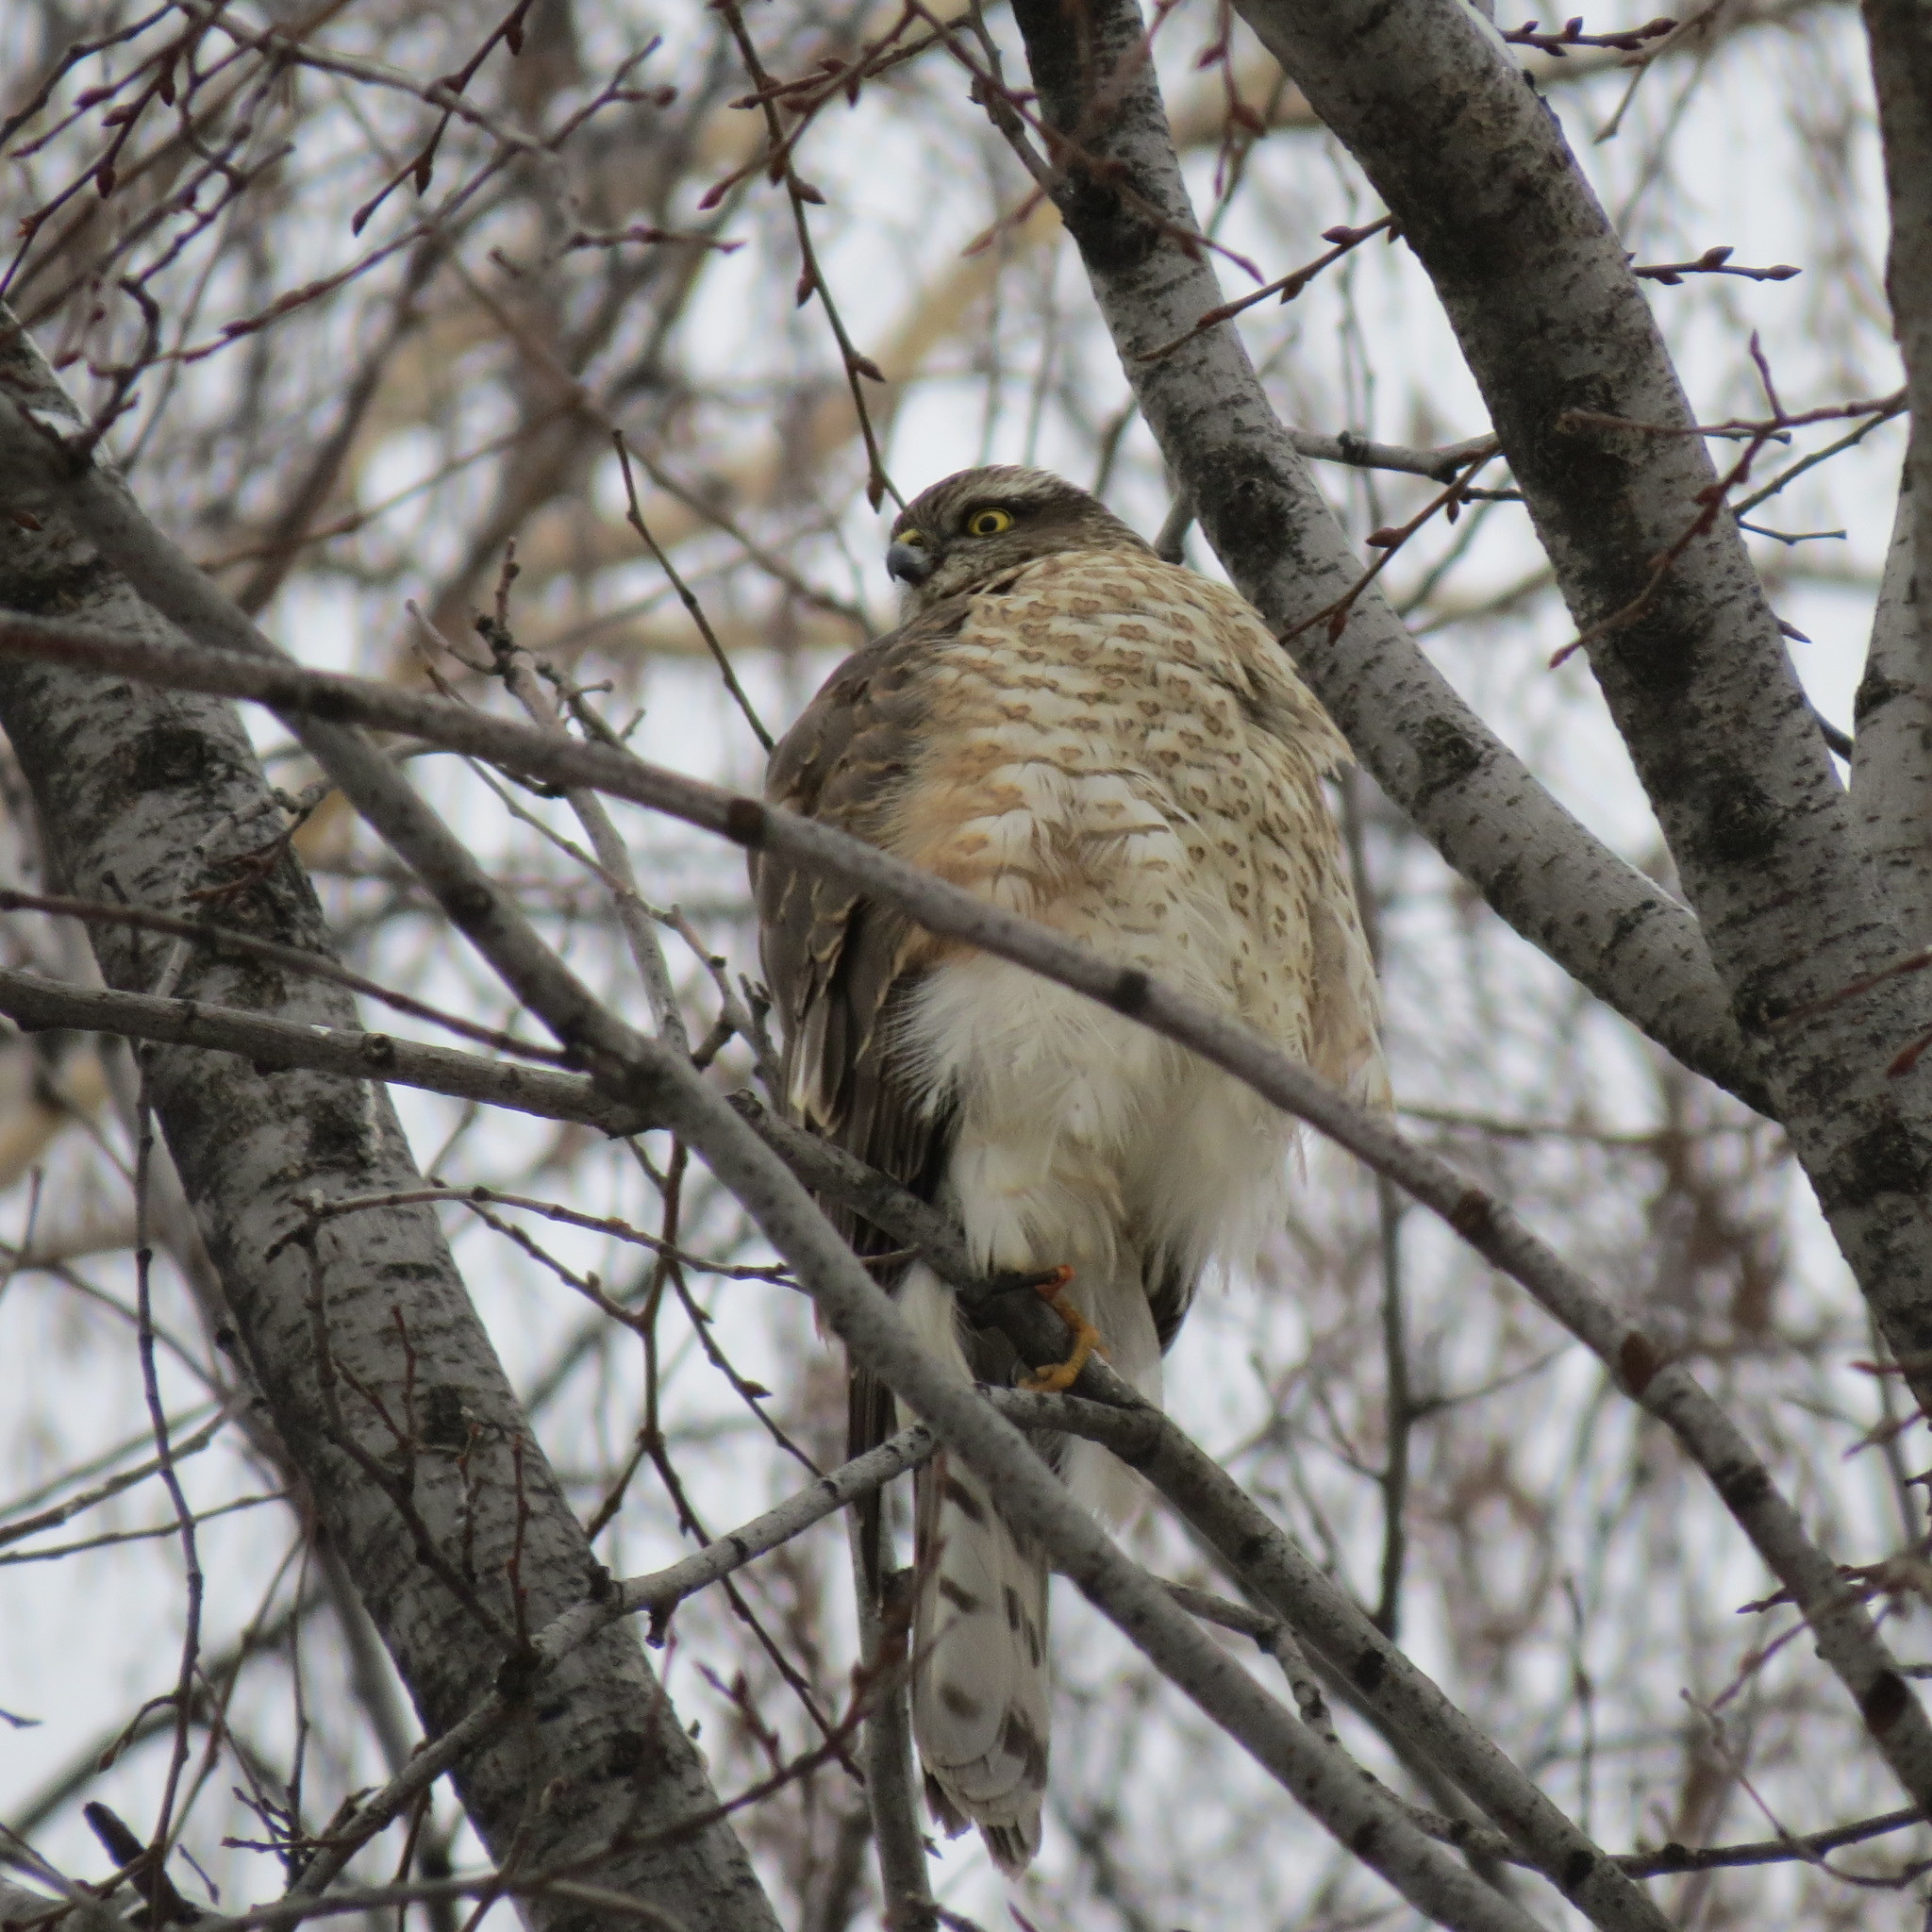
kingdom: Animalia
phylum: Chordata
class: Aves
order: Accipitriformes
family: Accipitridae
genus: Accipiter
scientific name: Accipiter nisus
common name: Eurasian sparrowhawk
